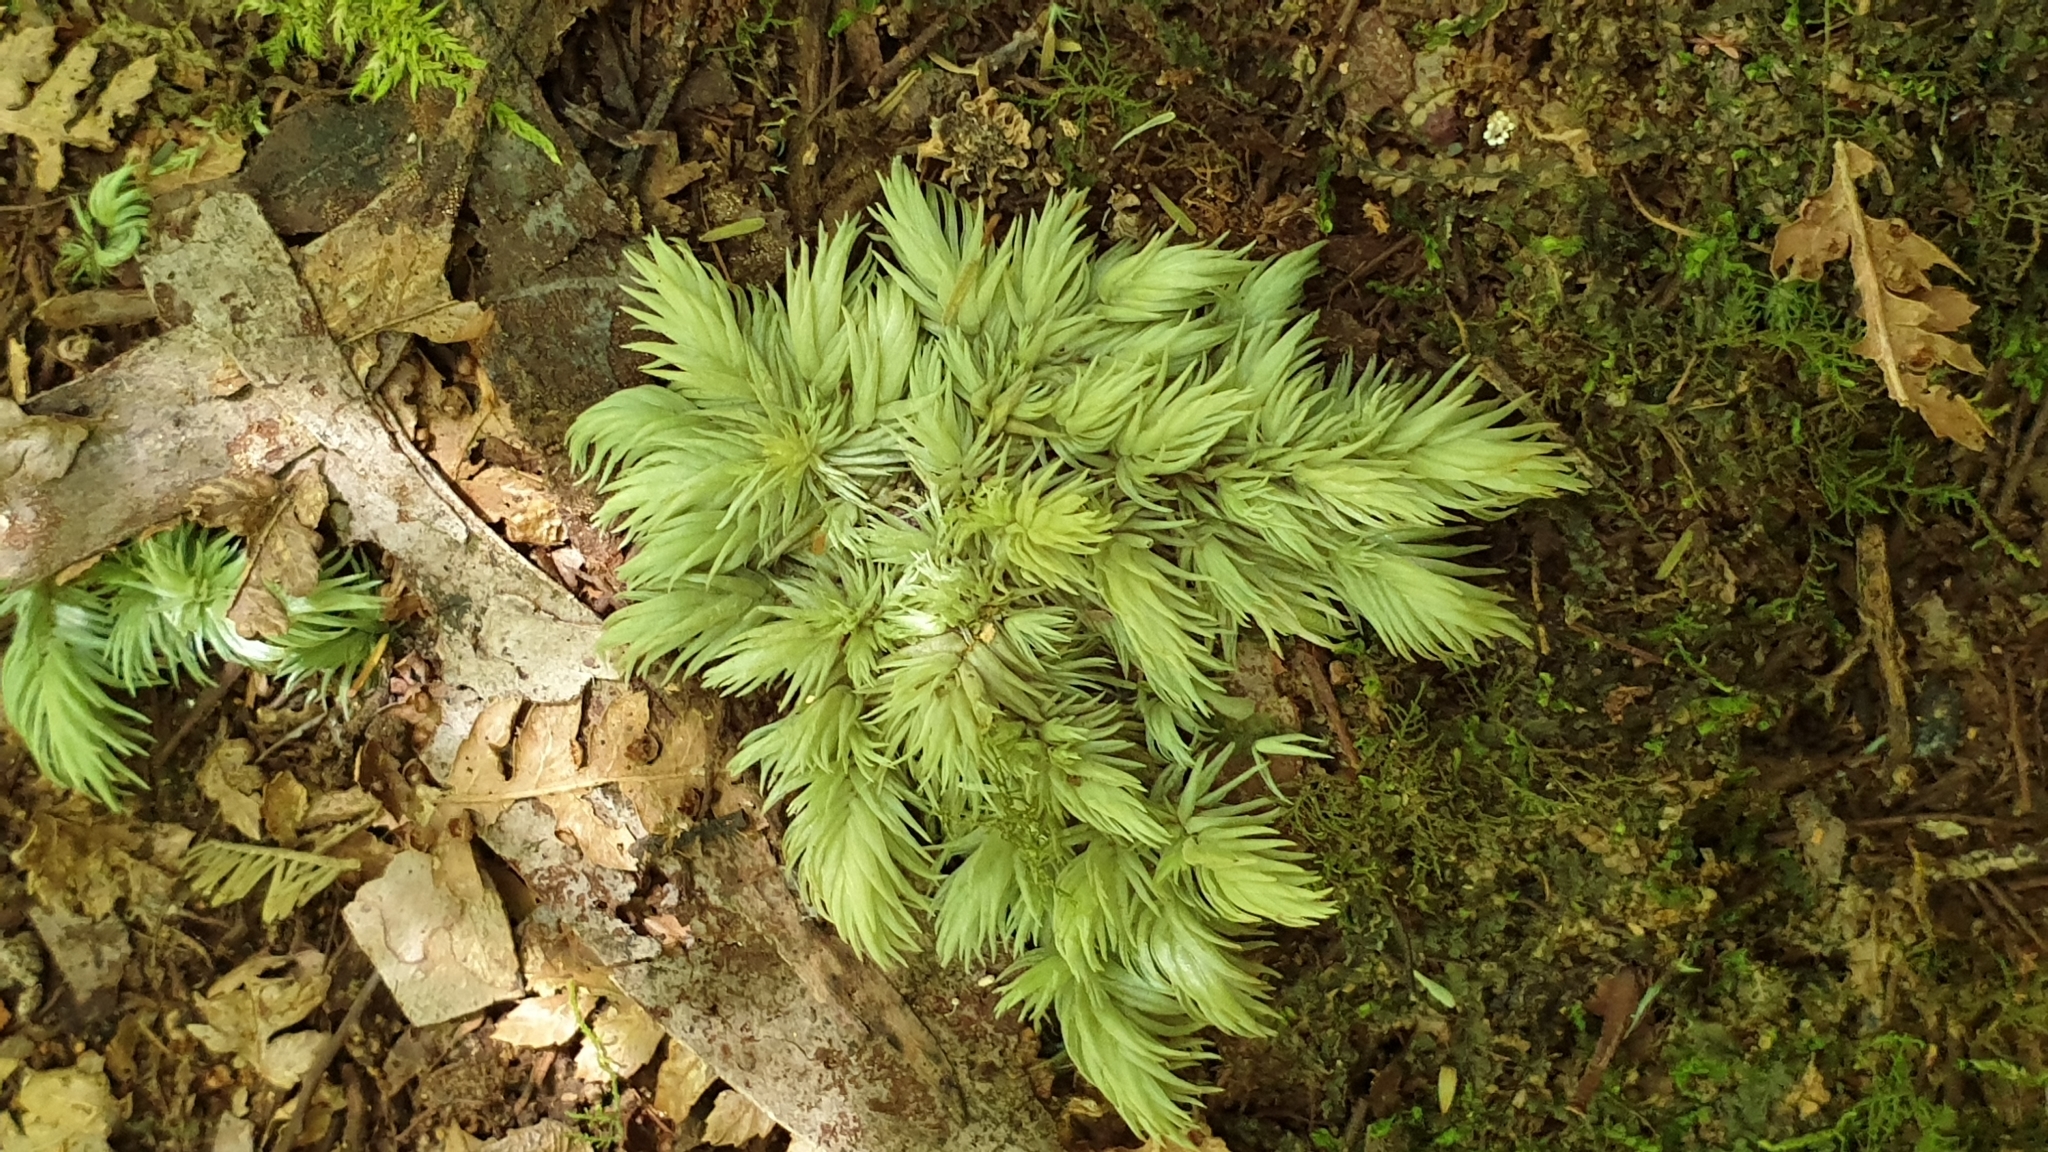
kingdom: Plantae
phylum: Bryophyta
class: Bryopsida
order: Dicranales
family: Leucobryaceae
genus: Leucobryum
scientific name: Leucobryum javense
